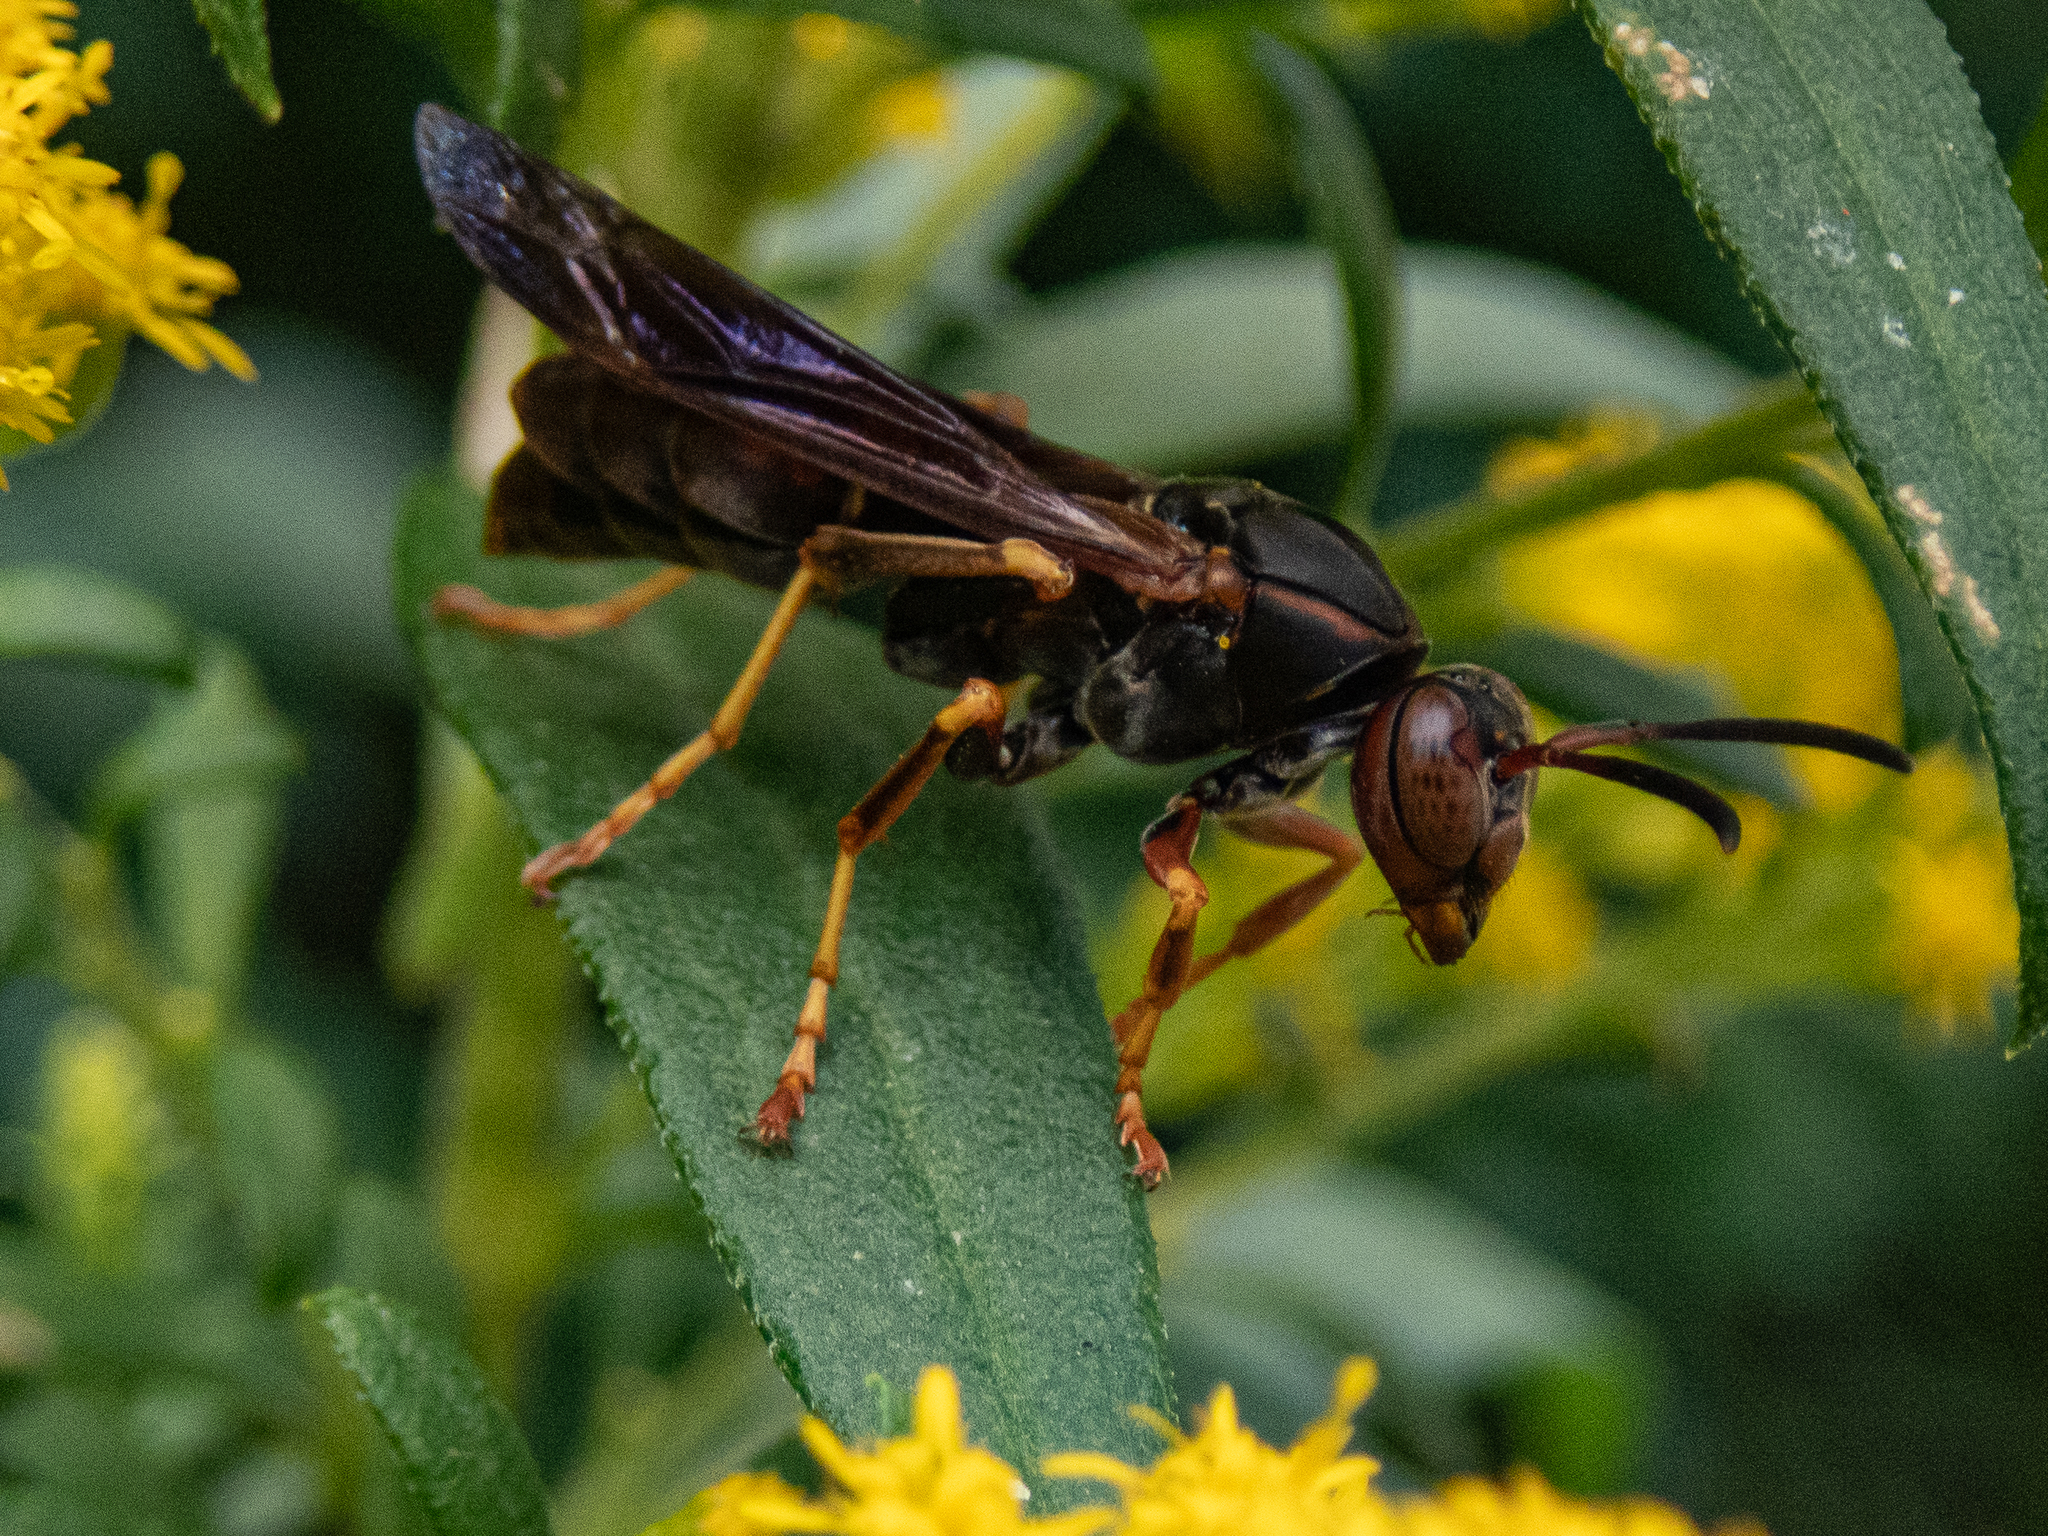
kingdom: Animalia
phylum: Arthropoda
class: Insecta
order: Hymenoptera
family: Eumenidae
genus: Polistes
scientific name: Polistes fuscatus
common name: Dark paper wasp
